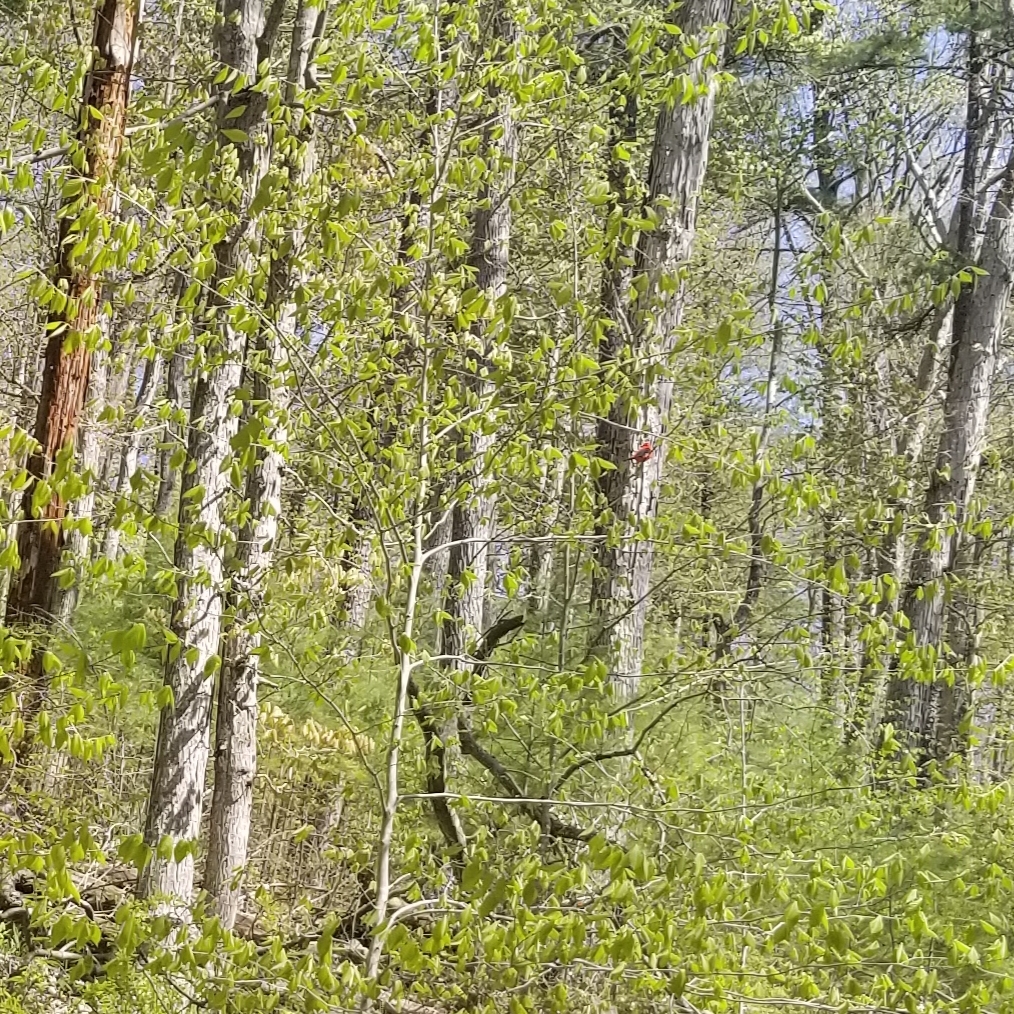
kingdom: Animalia
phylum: Chordata
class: Aves
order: Passeriformes
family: Cardinalidae
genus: Piranga
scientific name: Piranga olivacea
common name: Scarlet tanager
